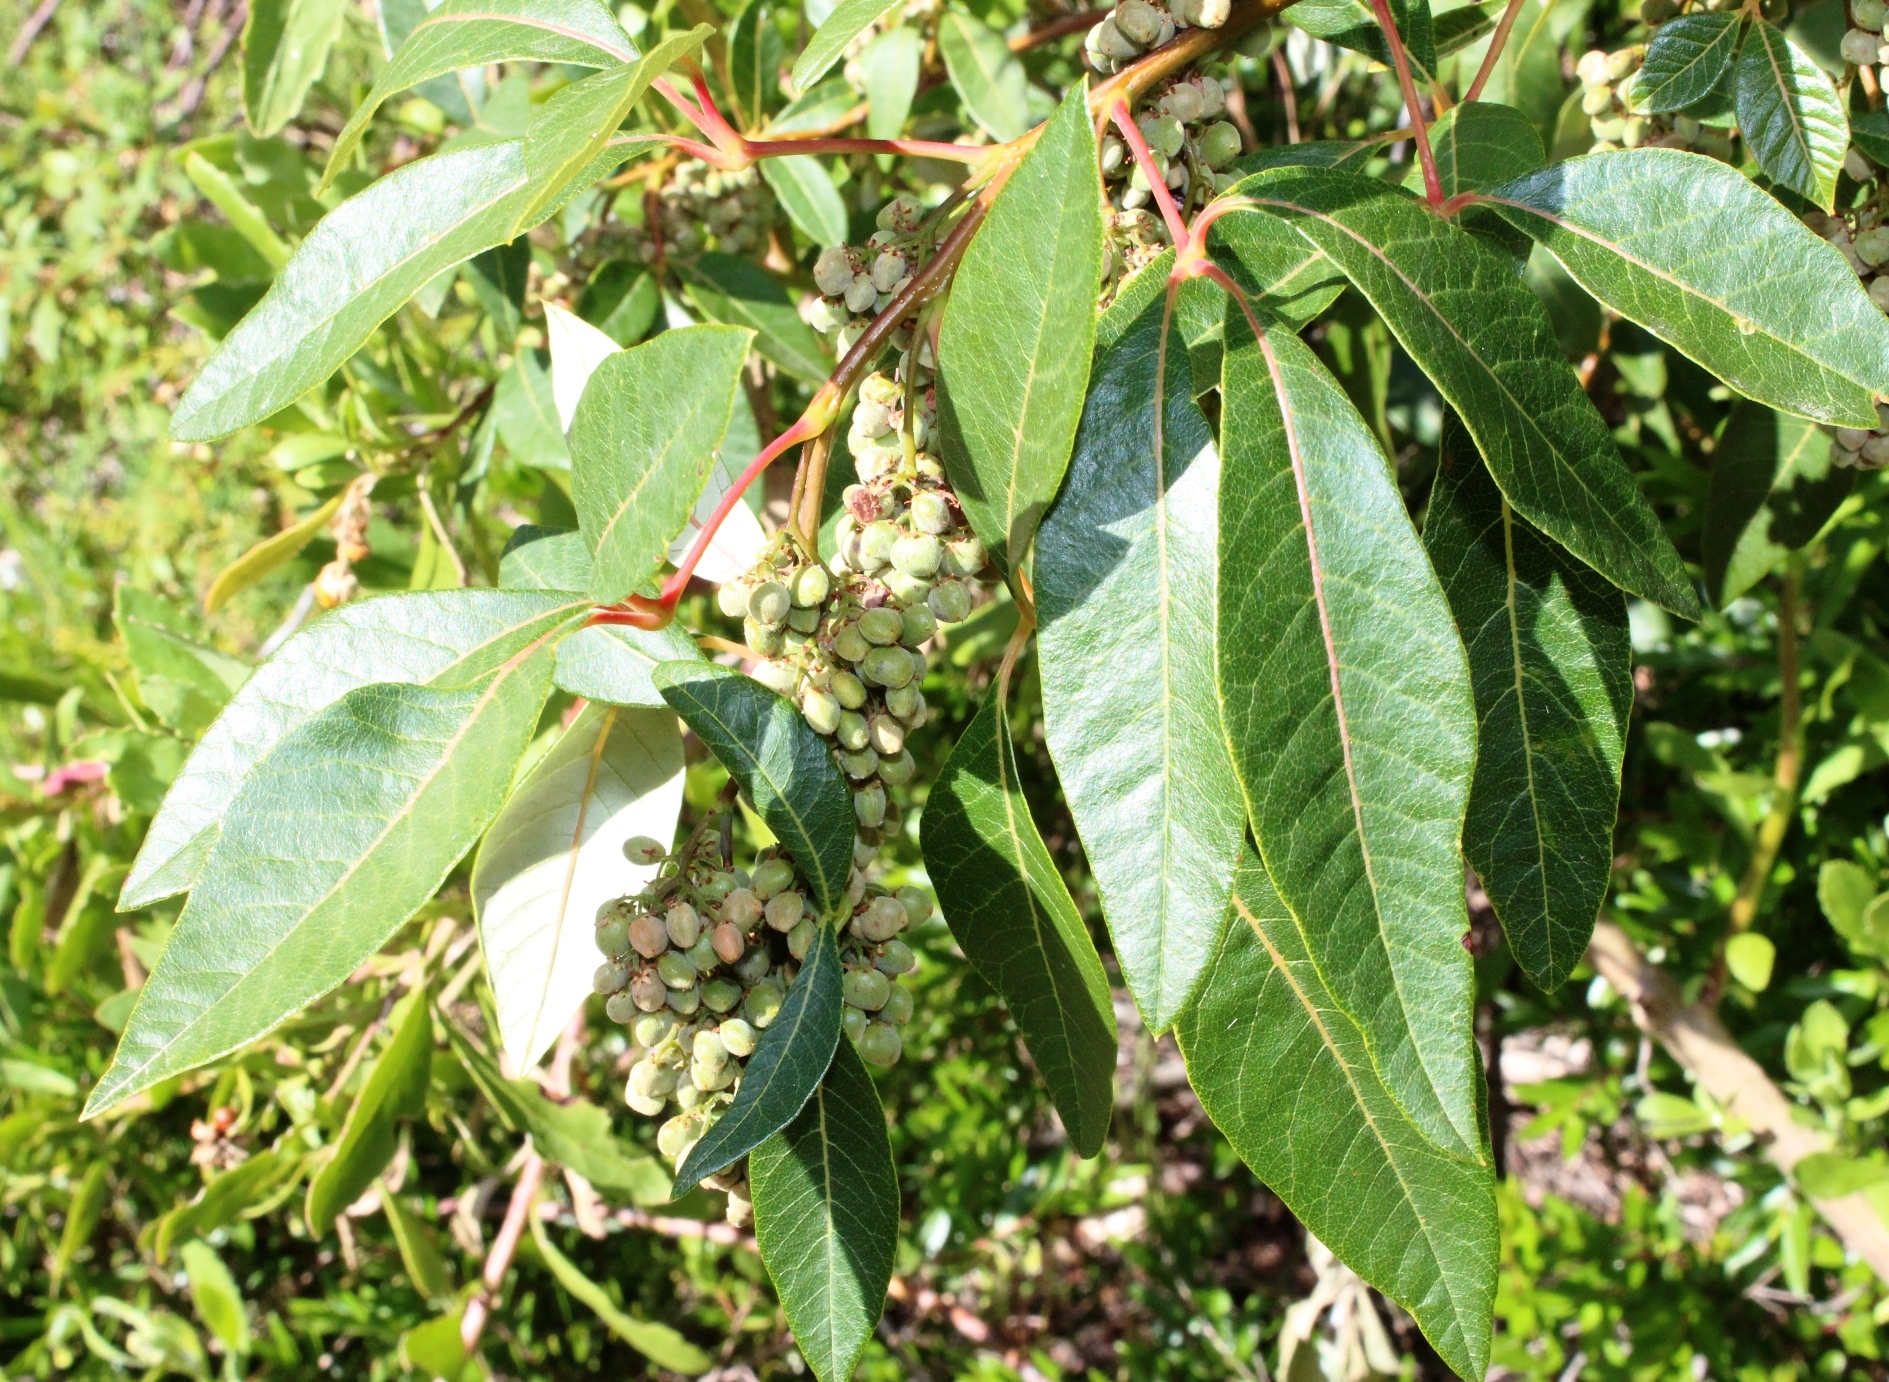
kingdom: Plantae
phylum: Tracheophyta
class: Magnoliopsida
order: Sapindales
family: Anacardiaceae
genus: Searsia
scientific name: Searsia tomentosa
